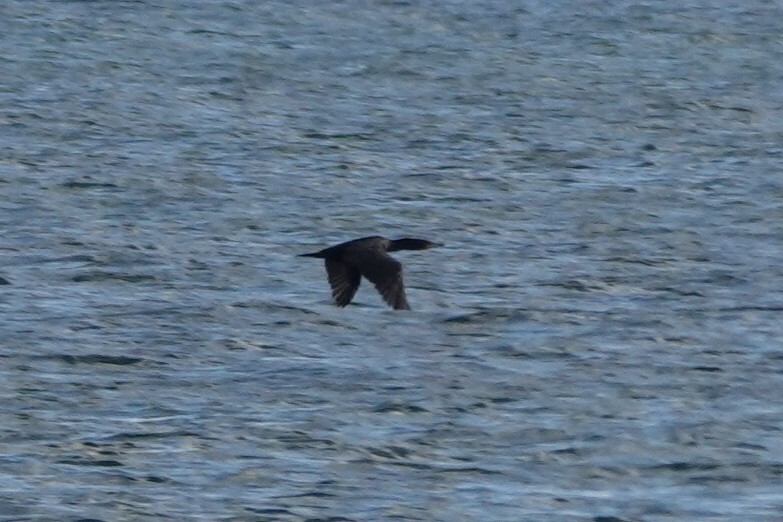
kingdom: Animalia
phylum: Chordata
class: Aves
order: Suliformes
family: Phalacrocoracidae
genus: Phalacrocorax
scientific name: Phalacrocorax auritus
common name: Double-crested cormorant
